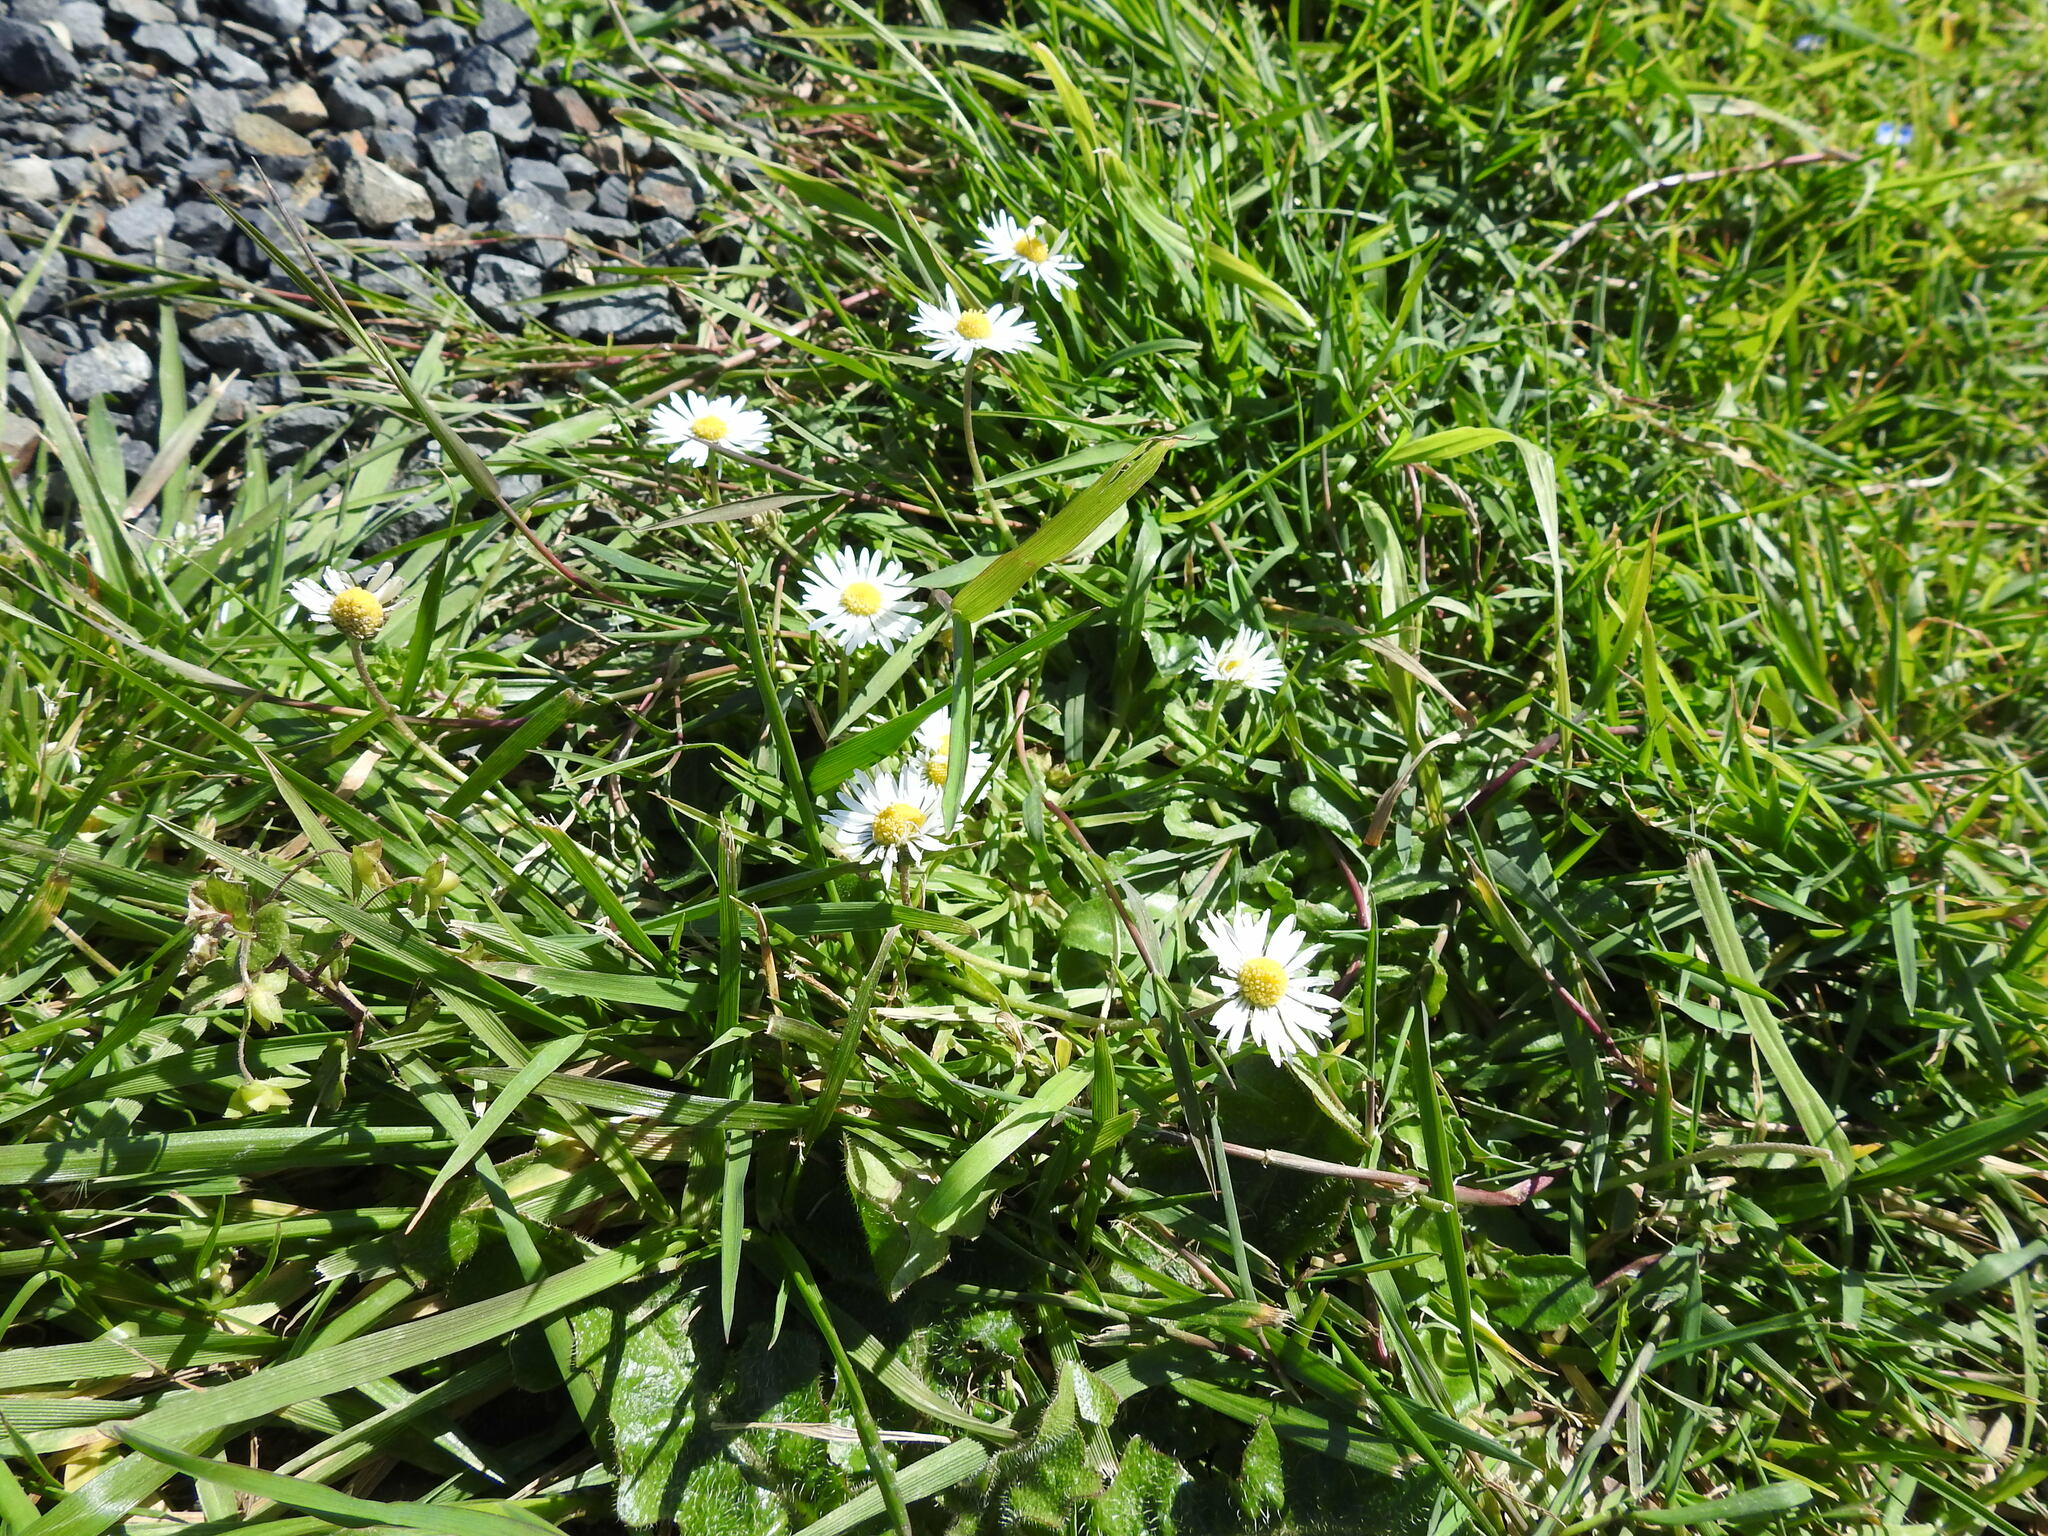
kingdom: Plantae
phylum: Tracheophyta
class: Magnoliopsida
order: Asterales
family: Asteraceae
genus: Bellis
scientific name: Bellis perennis
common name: Lawndaisy
